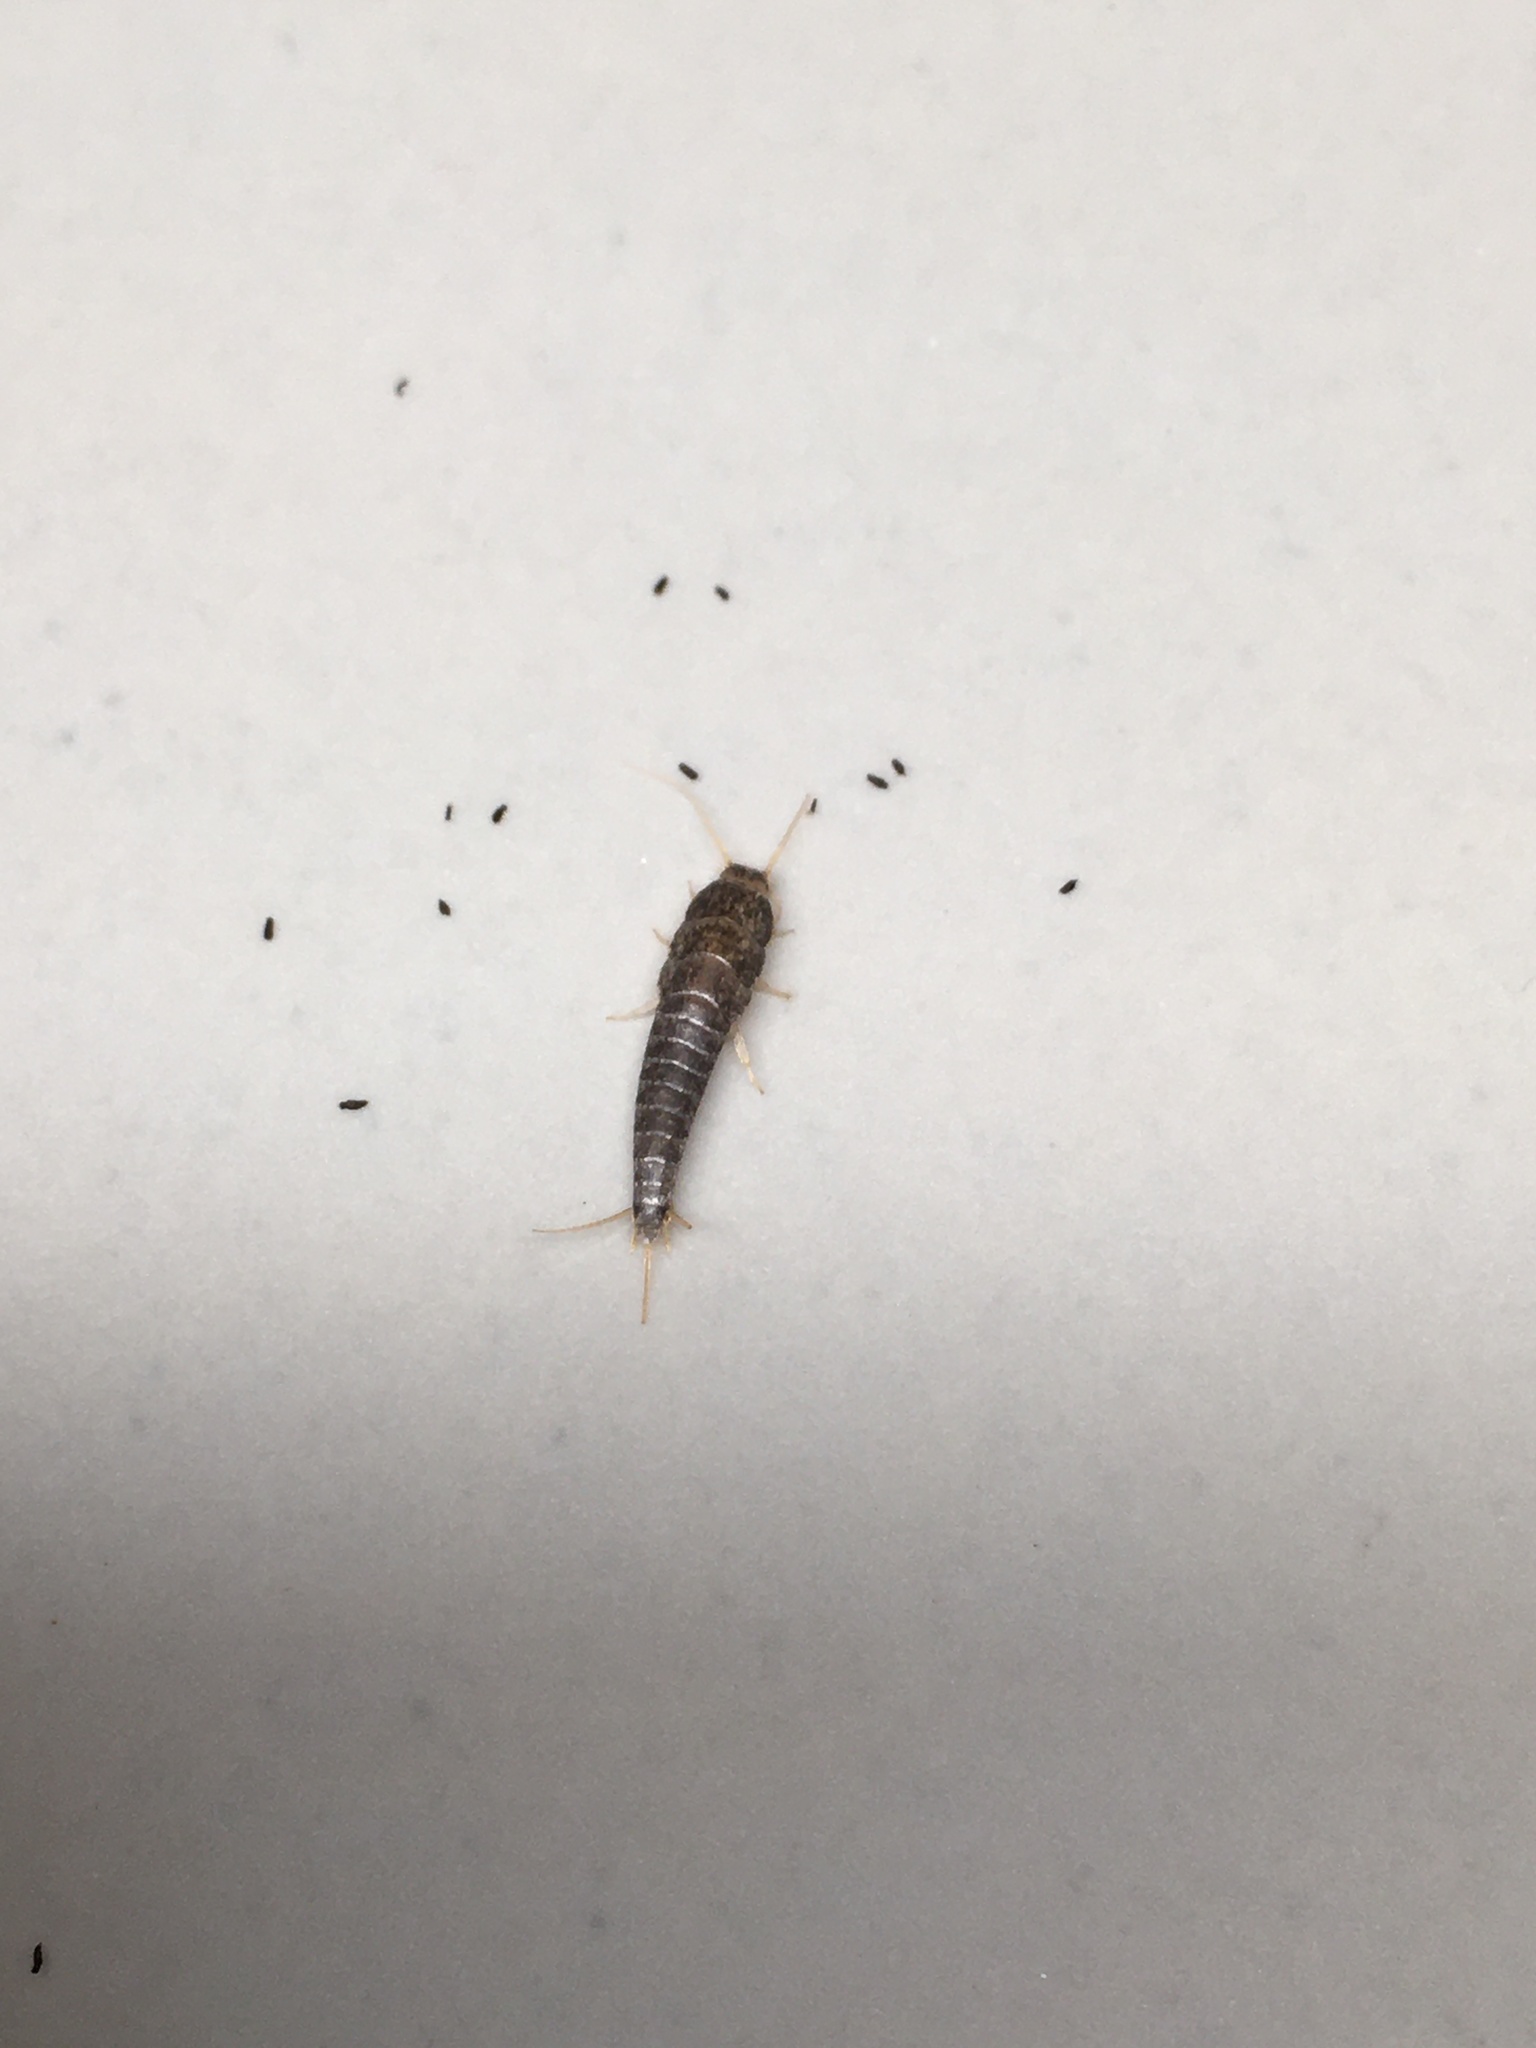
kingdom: Animalia
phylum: Arthropoda
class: Insecta
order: Zygentoma
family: Lepismatidae
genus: Lepisma
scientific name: Lepisma saccharinum
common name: Silverfish
